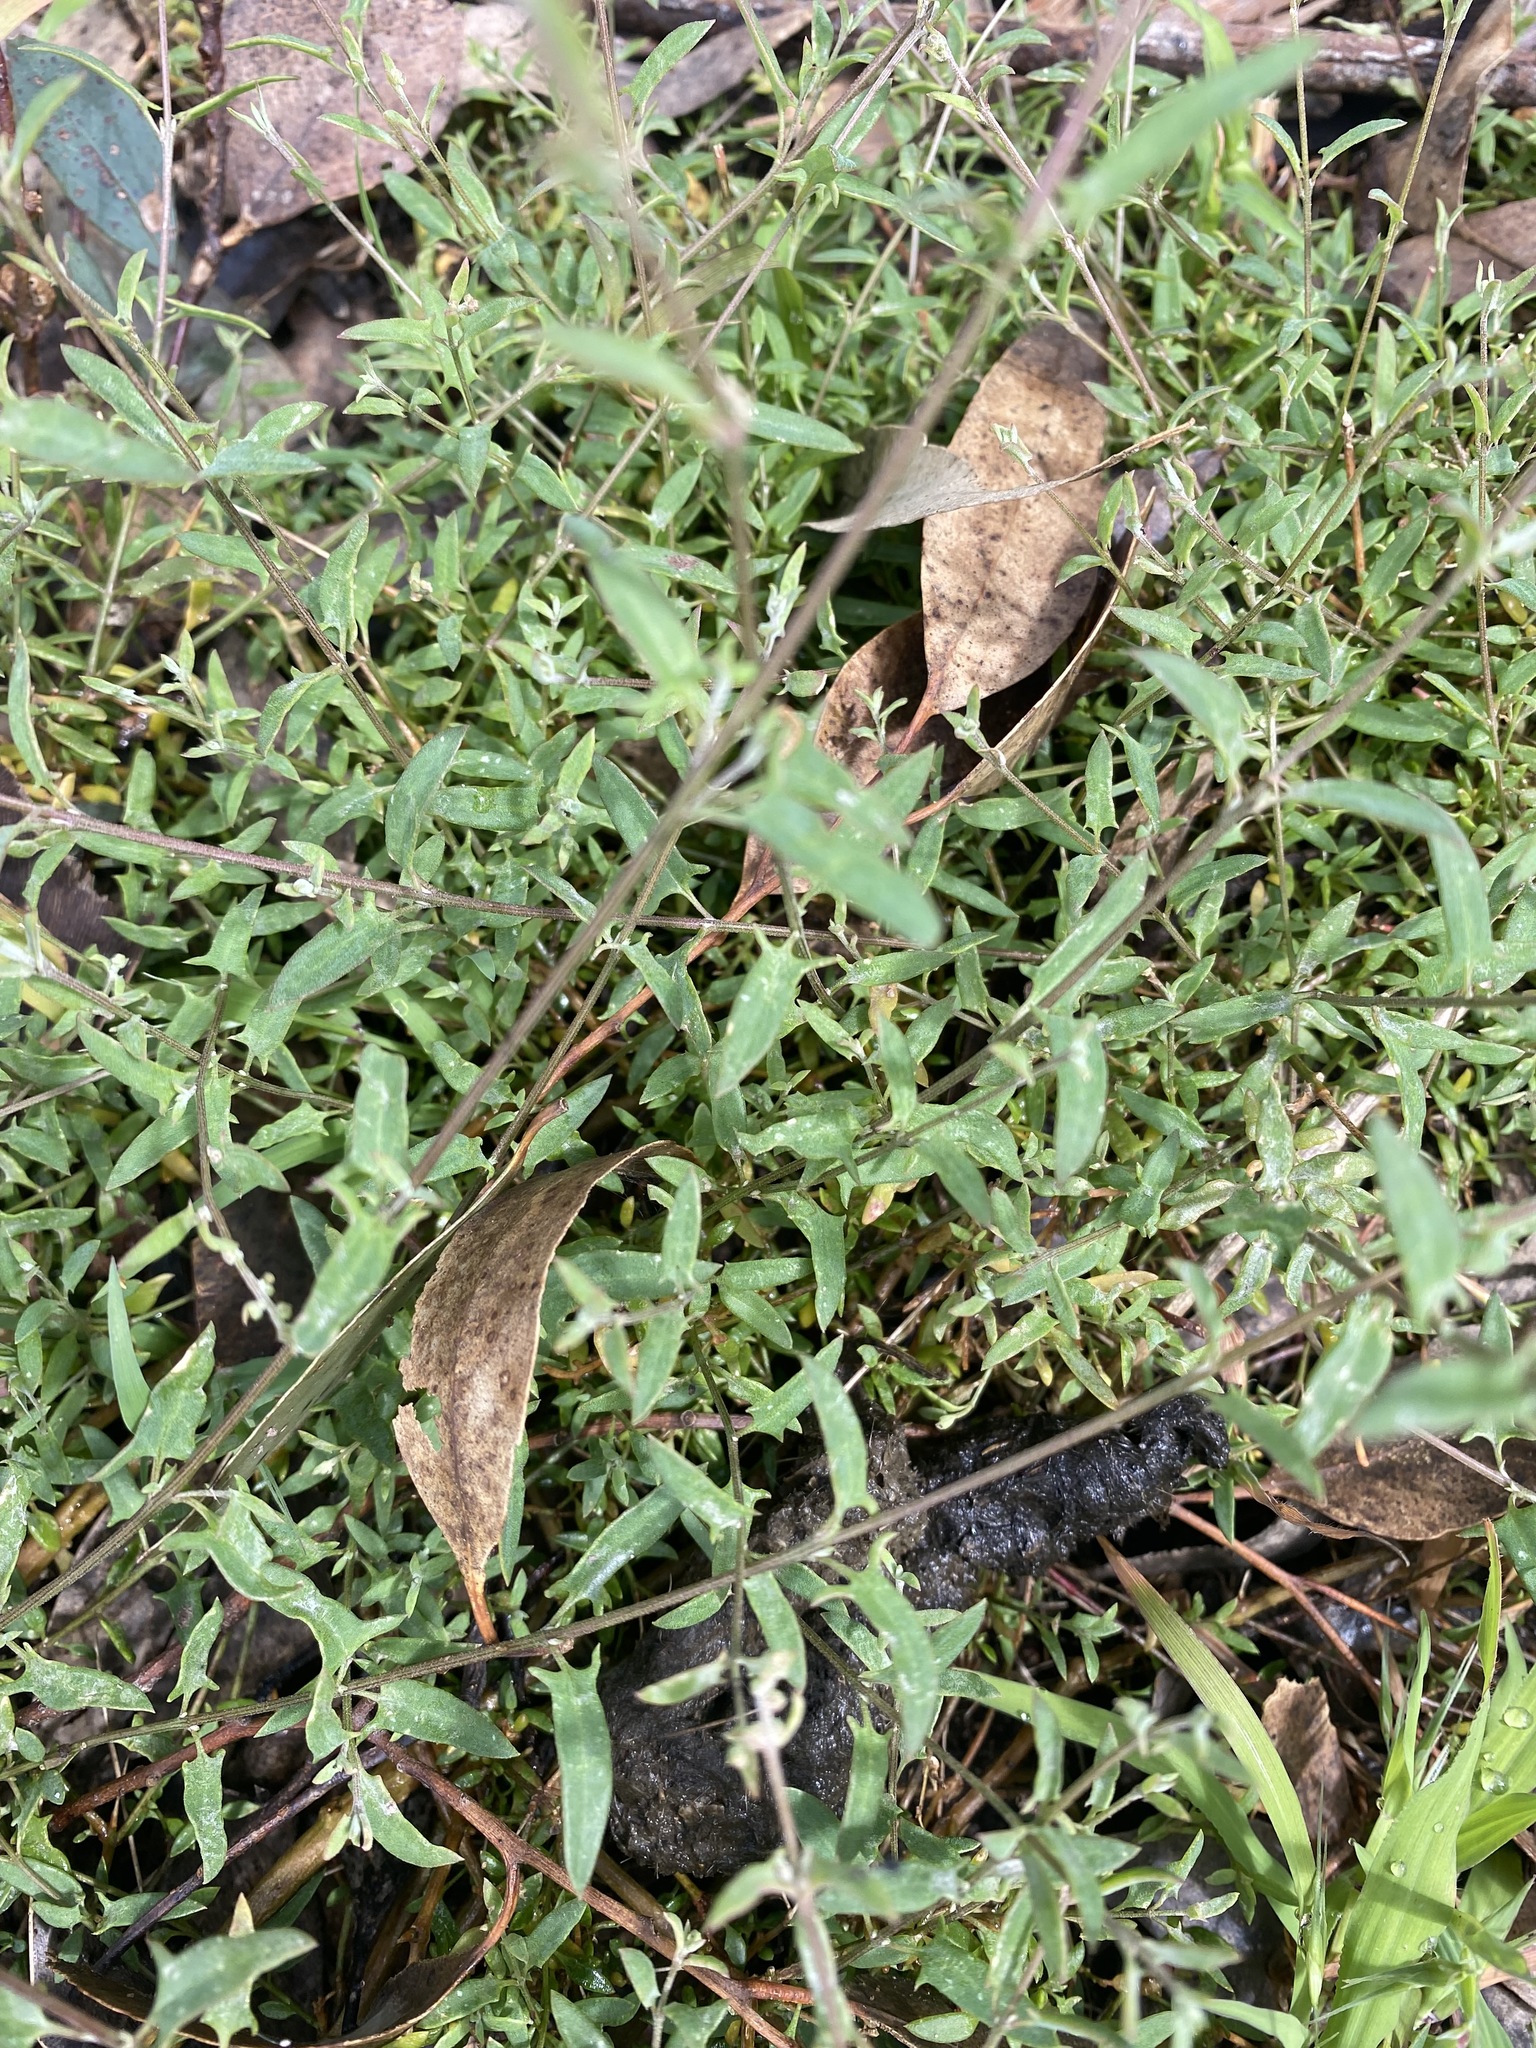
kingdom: Plantae
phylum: Tracheophyta
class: Magnoliopsida
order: Caryophyllales
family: Amaranthaceae
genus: Chenopodium
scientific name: Chenopodium nutans
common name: Climbing-saltbush
